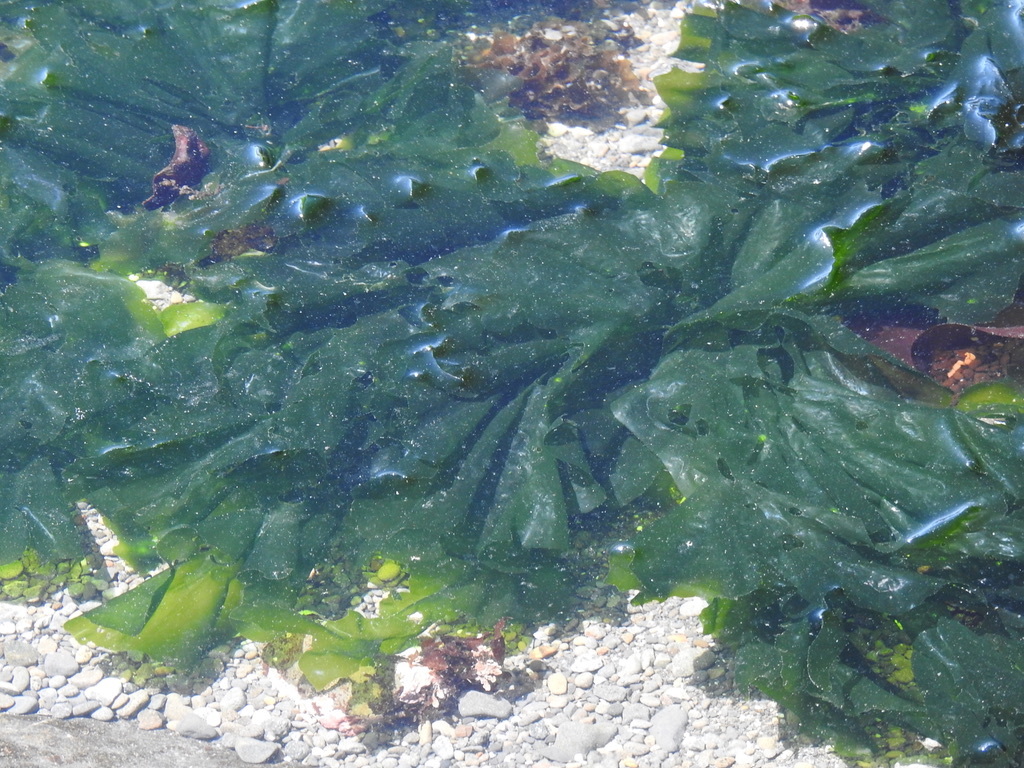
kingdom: Plantae
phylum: Chlorophyta
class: Ulvophyceae
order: Ulvales
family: Ulvaceae
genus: Ulva
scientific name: Ulva lactuca
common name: Sea lettuce
